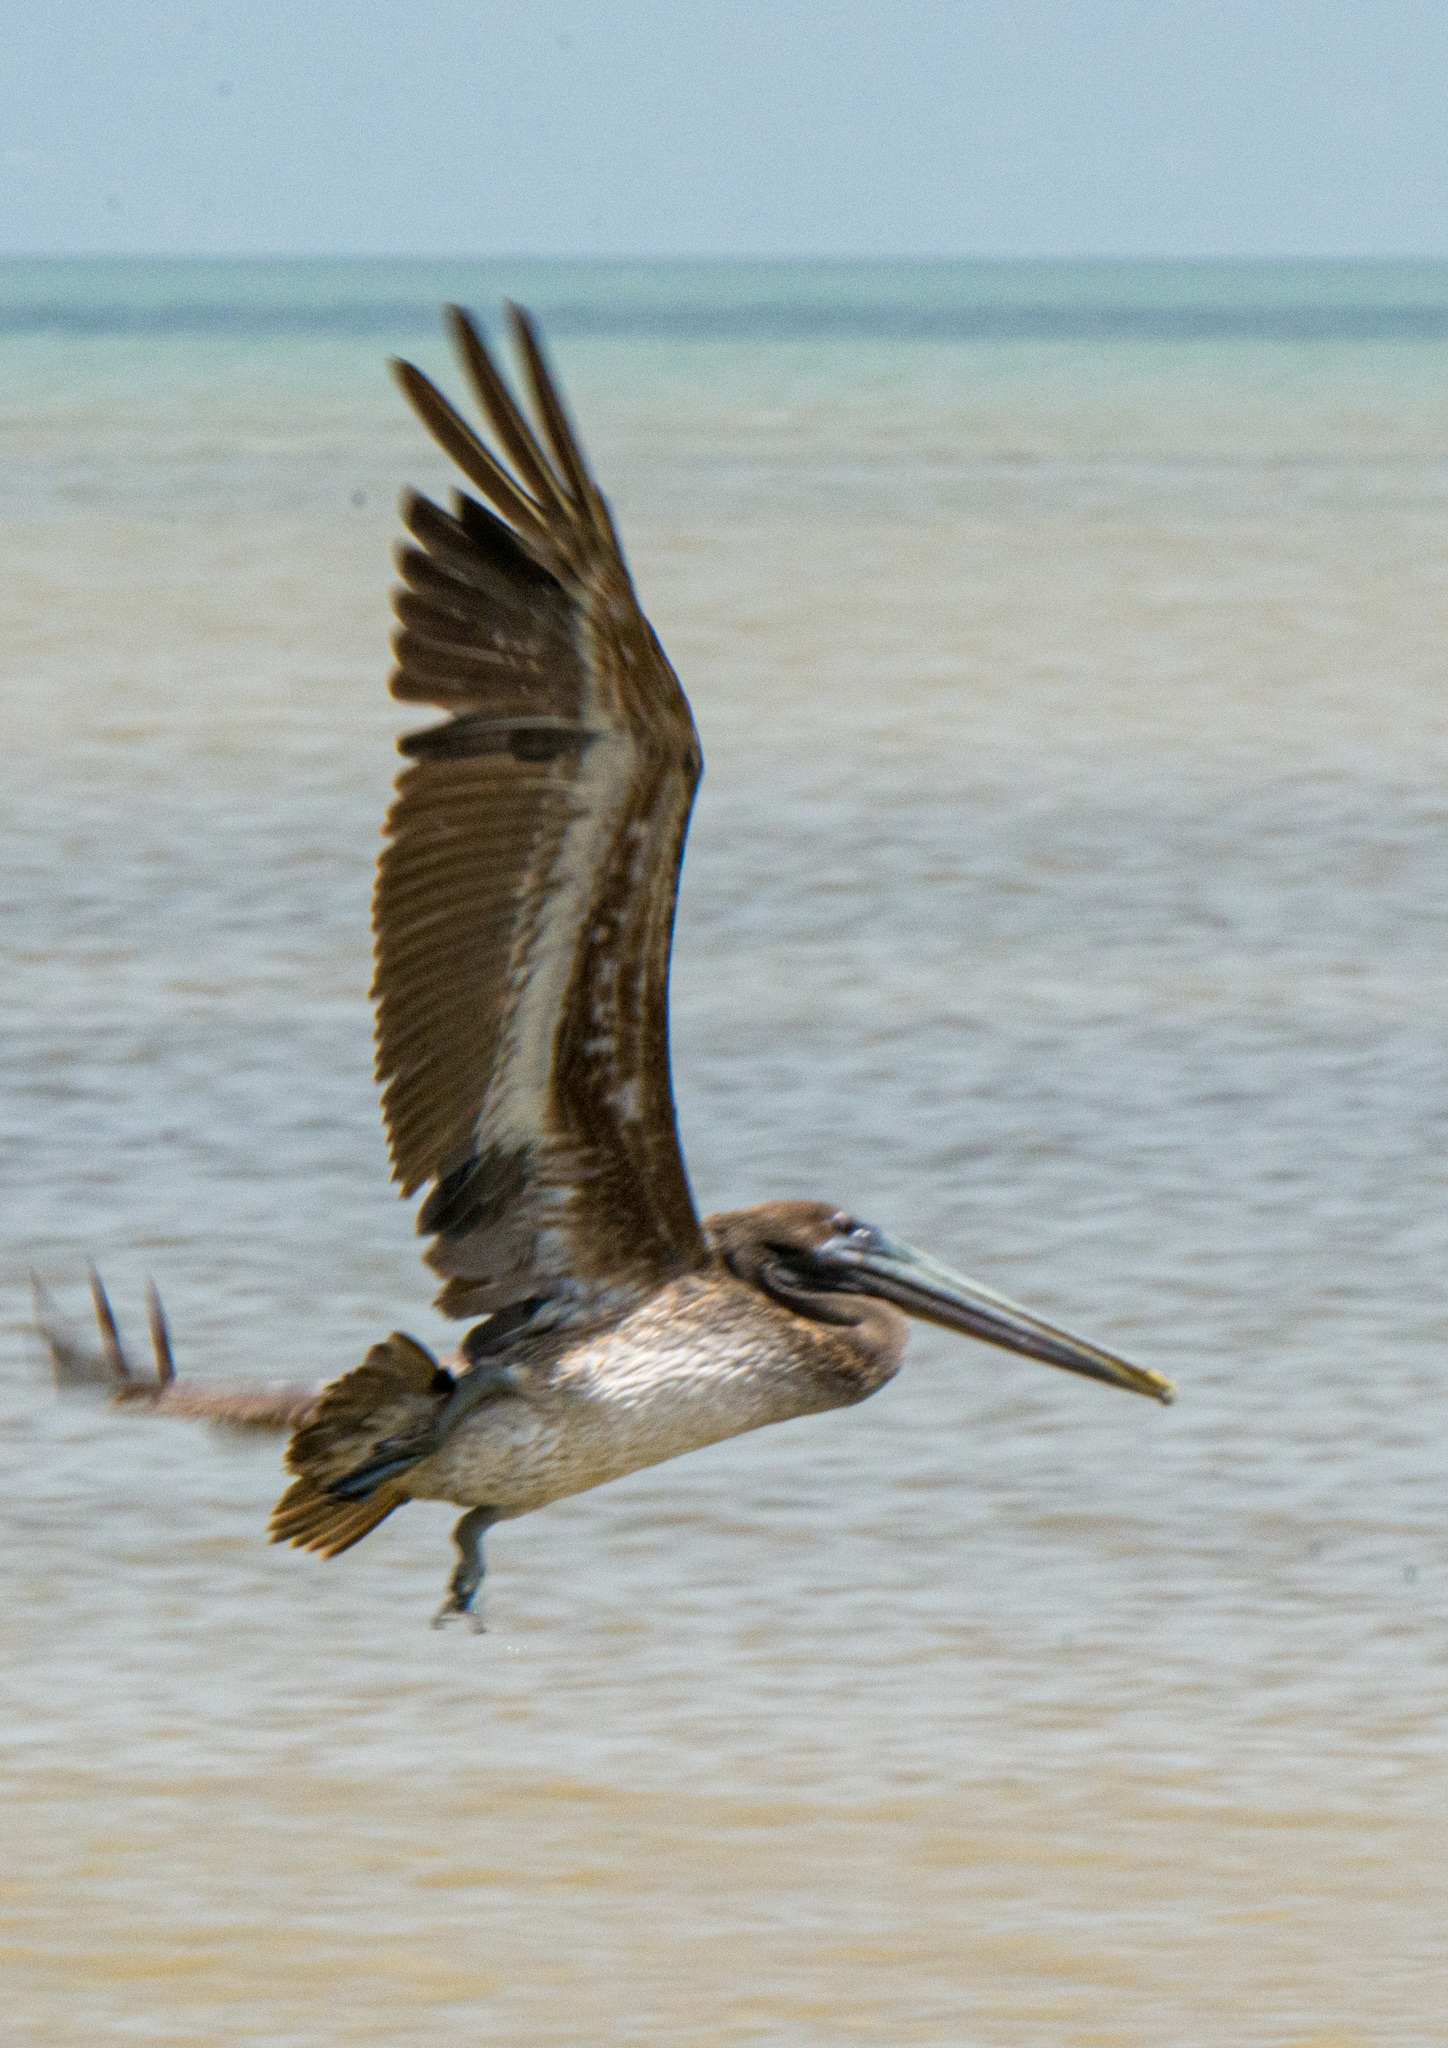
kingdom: Animalia
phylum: Chordata
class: Aves
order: Pelecaniformes
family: Pelecanidae
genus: Pelecanus
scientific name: Pelecanus occidentalis
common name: Brown pelican
